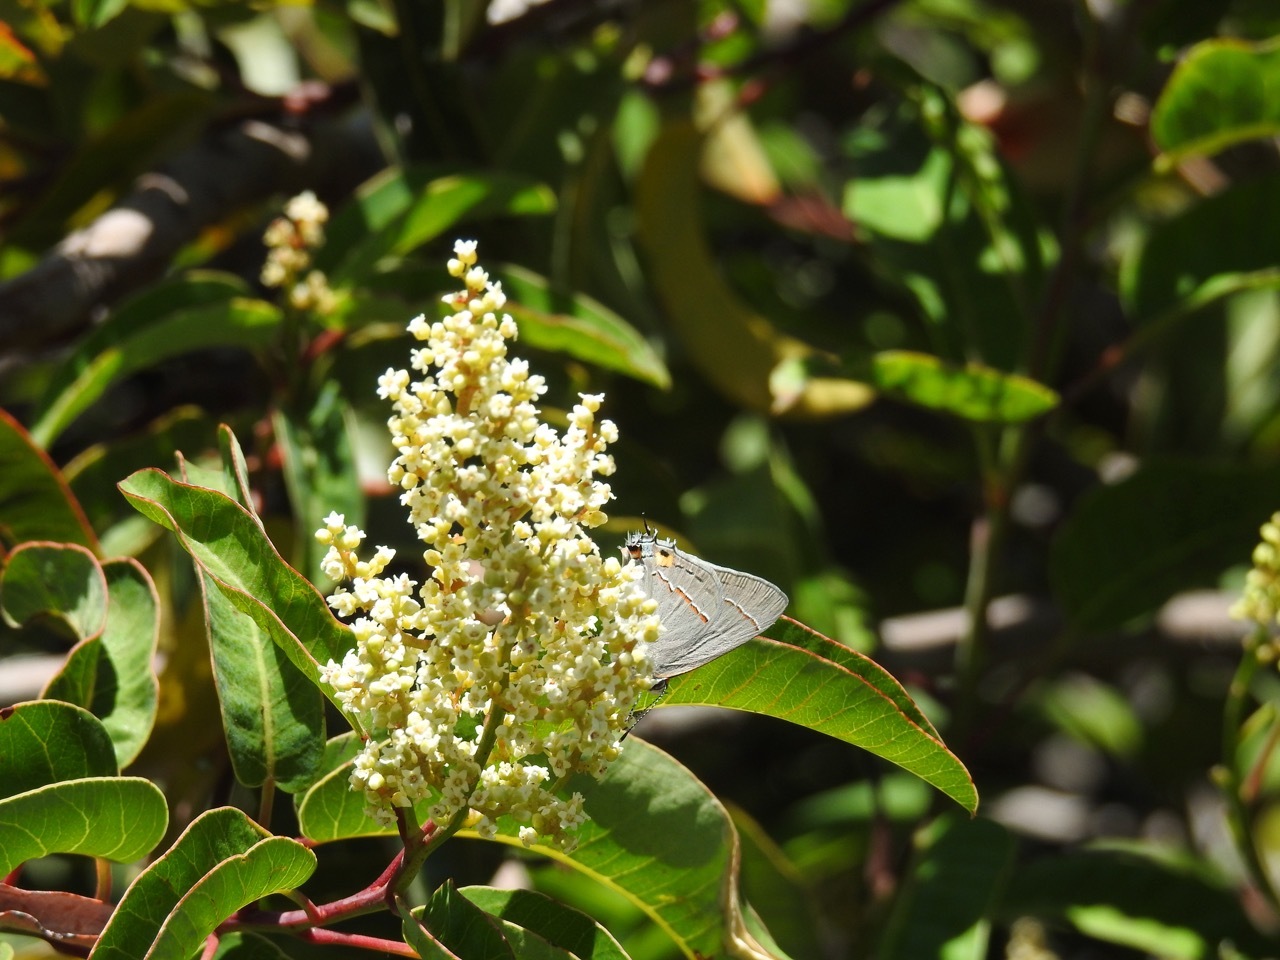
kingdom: Animalia
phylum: Arthropoda
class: Insecta
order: Lepidoptera
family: Lycaenidae
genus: Strymon
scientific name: Strymon melinus
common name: Gray hairstreak
